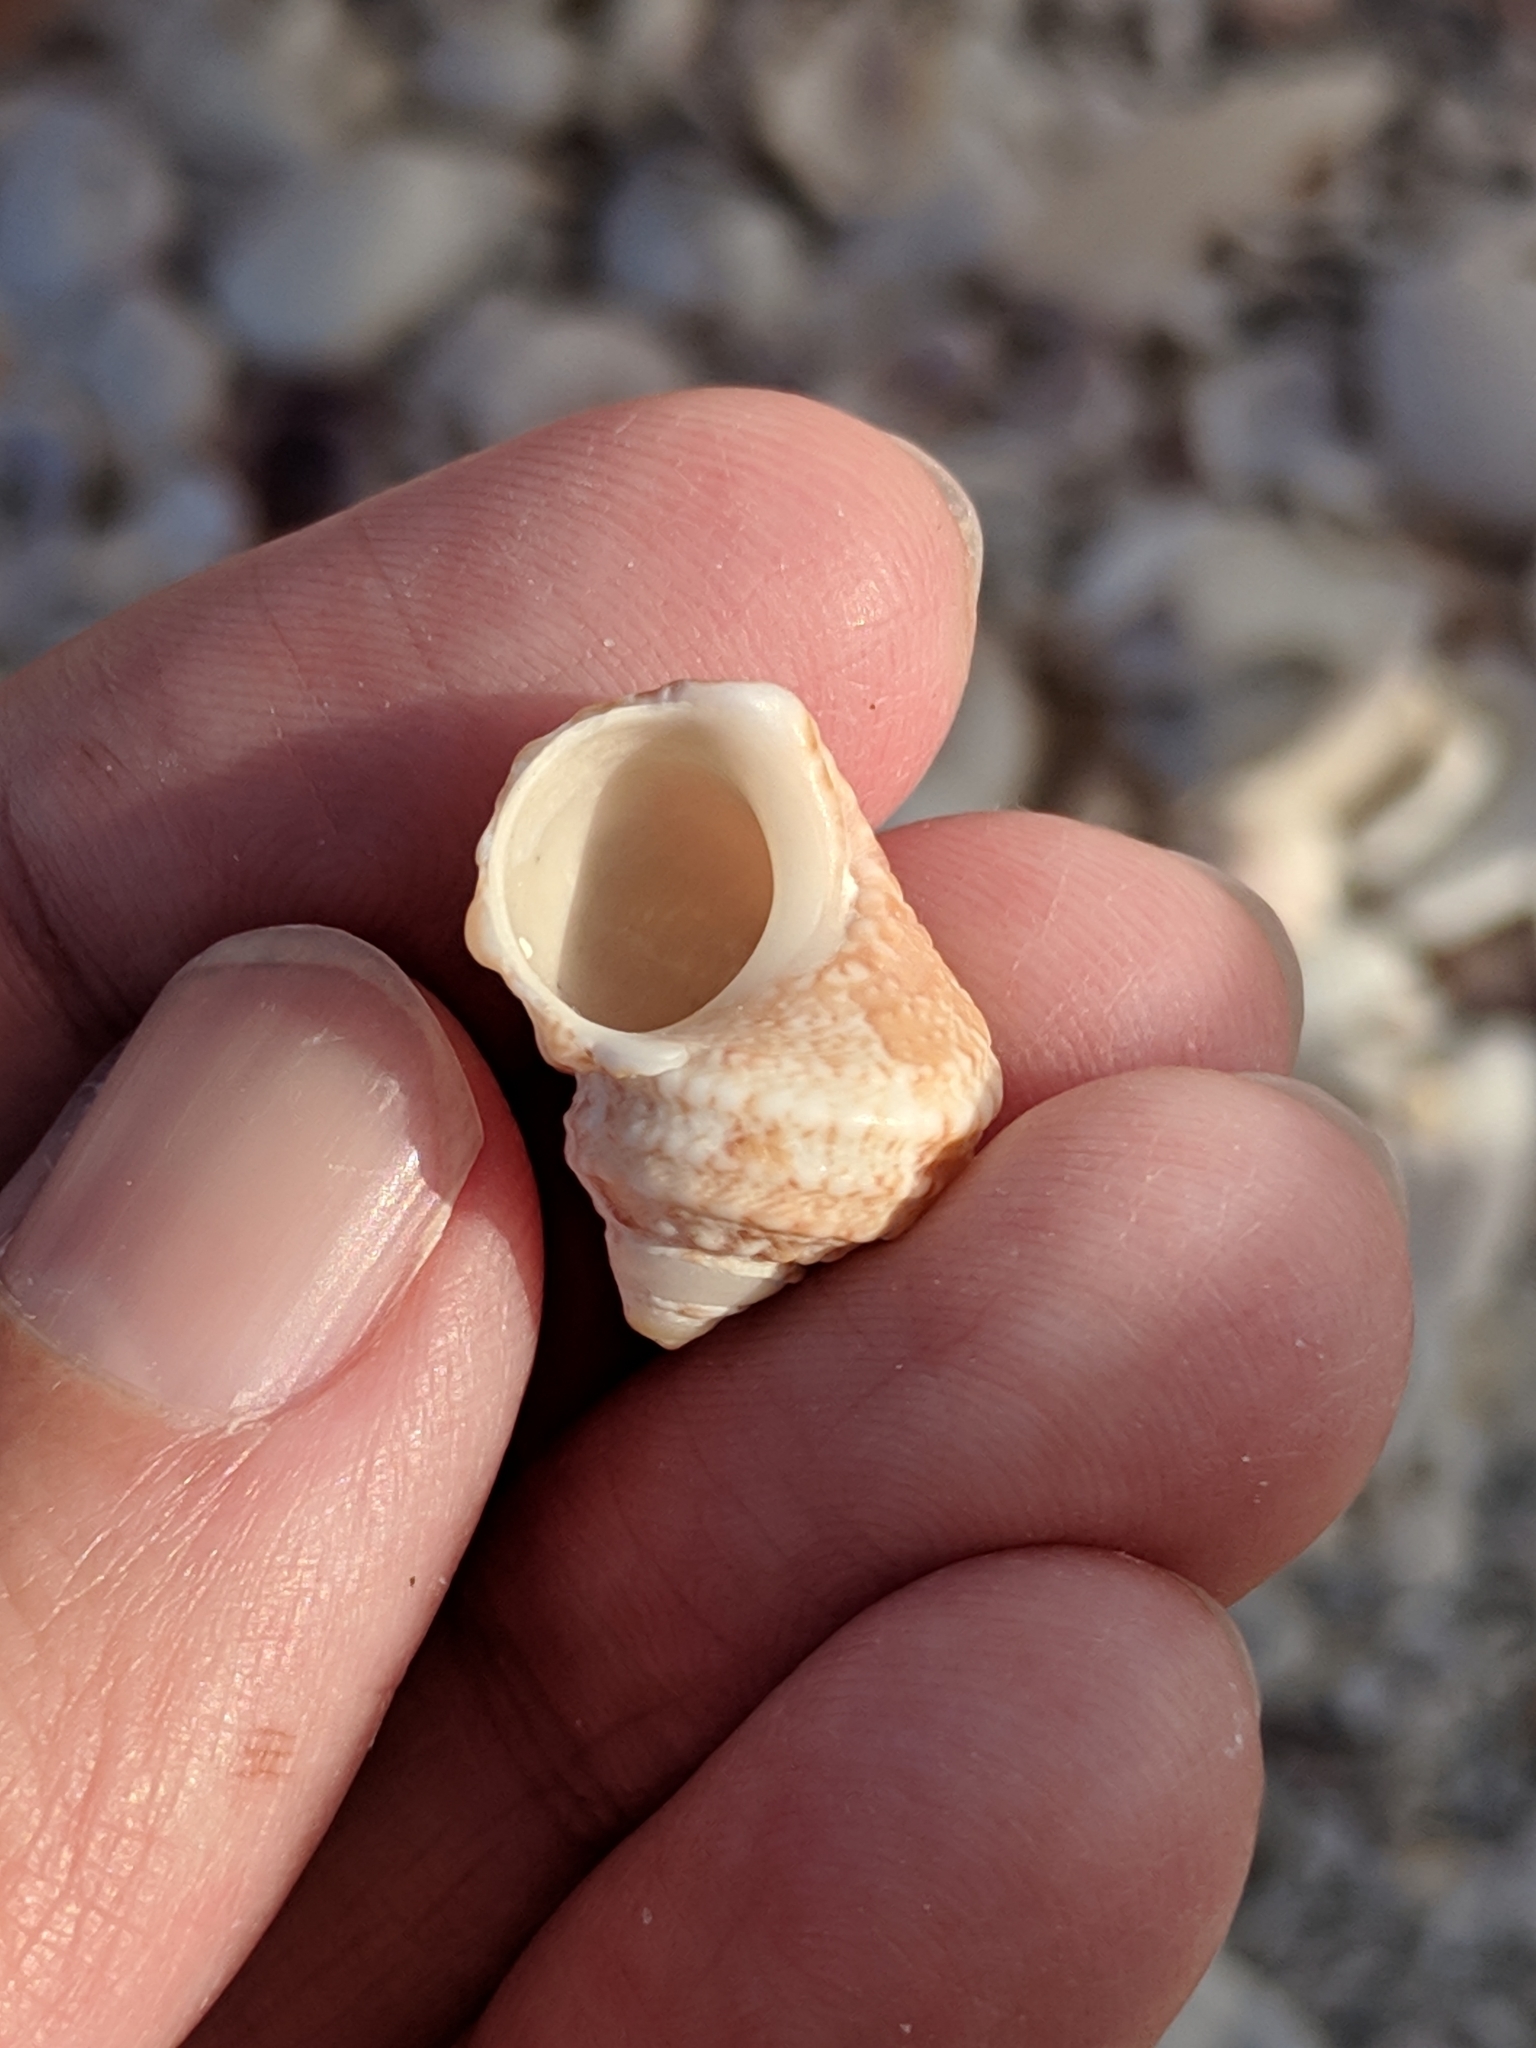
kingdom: Animalia
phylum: Mollusca
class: Gastropoda
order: Trochida
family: Turbinidae
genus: Turbo
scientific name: Turbo castanea
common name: Chestnut turban
